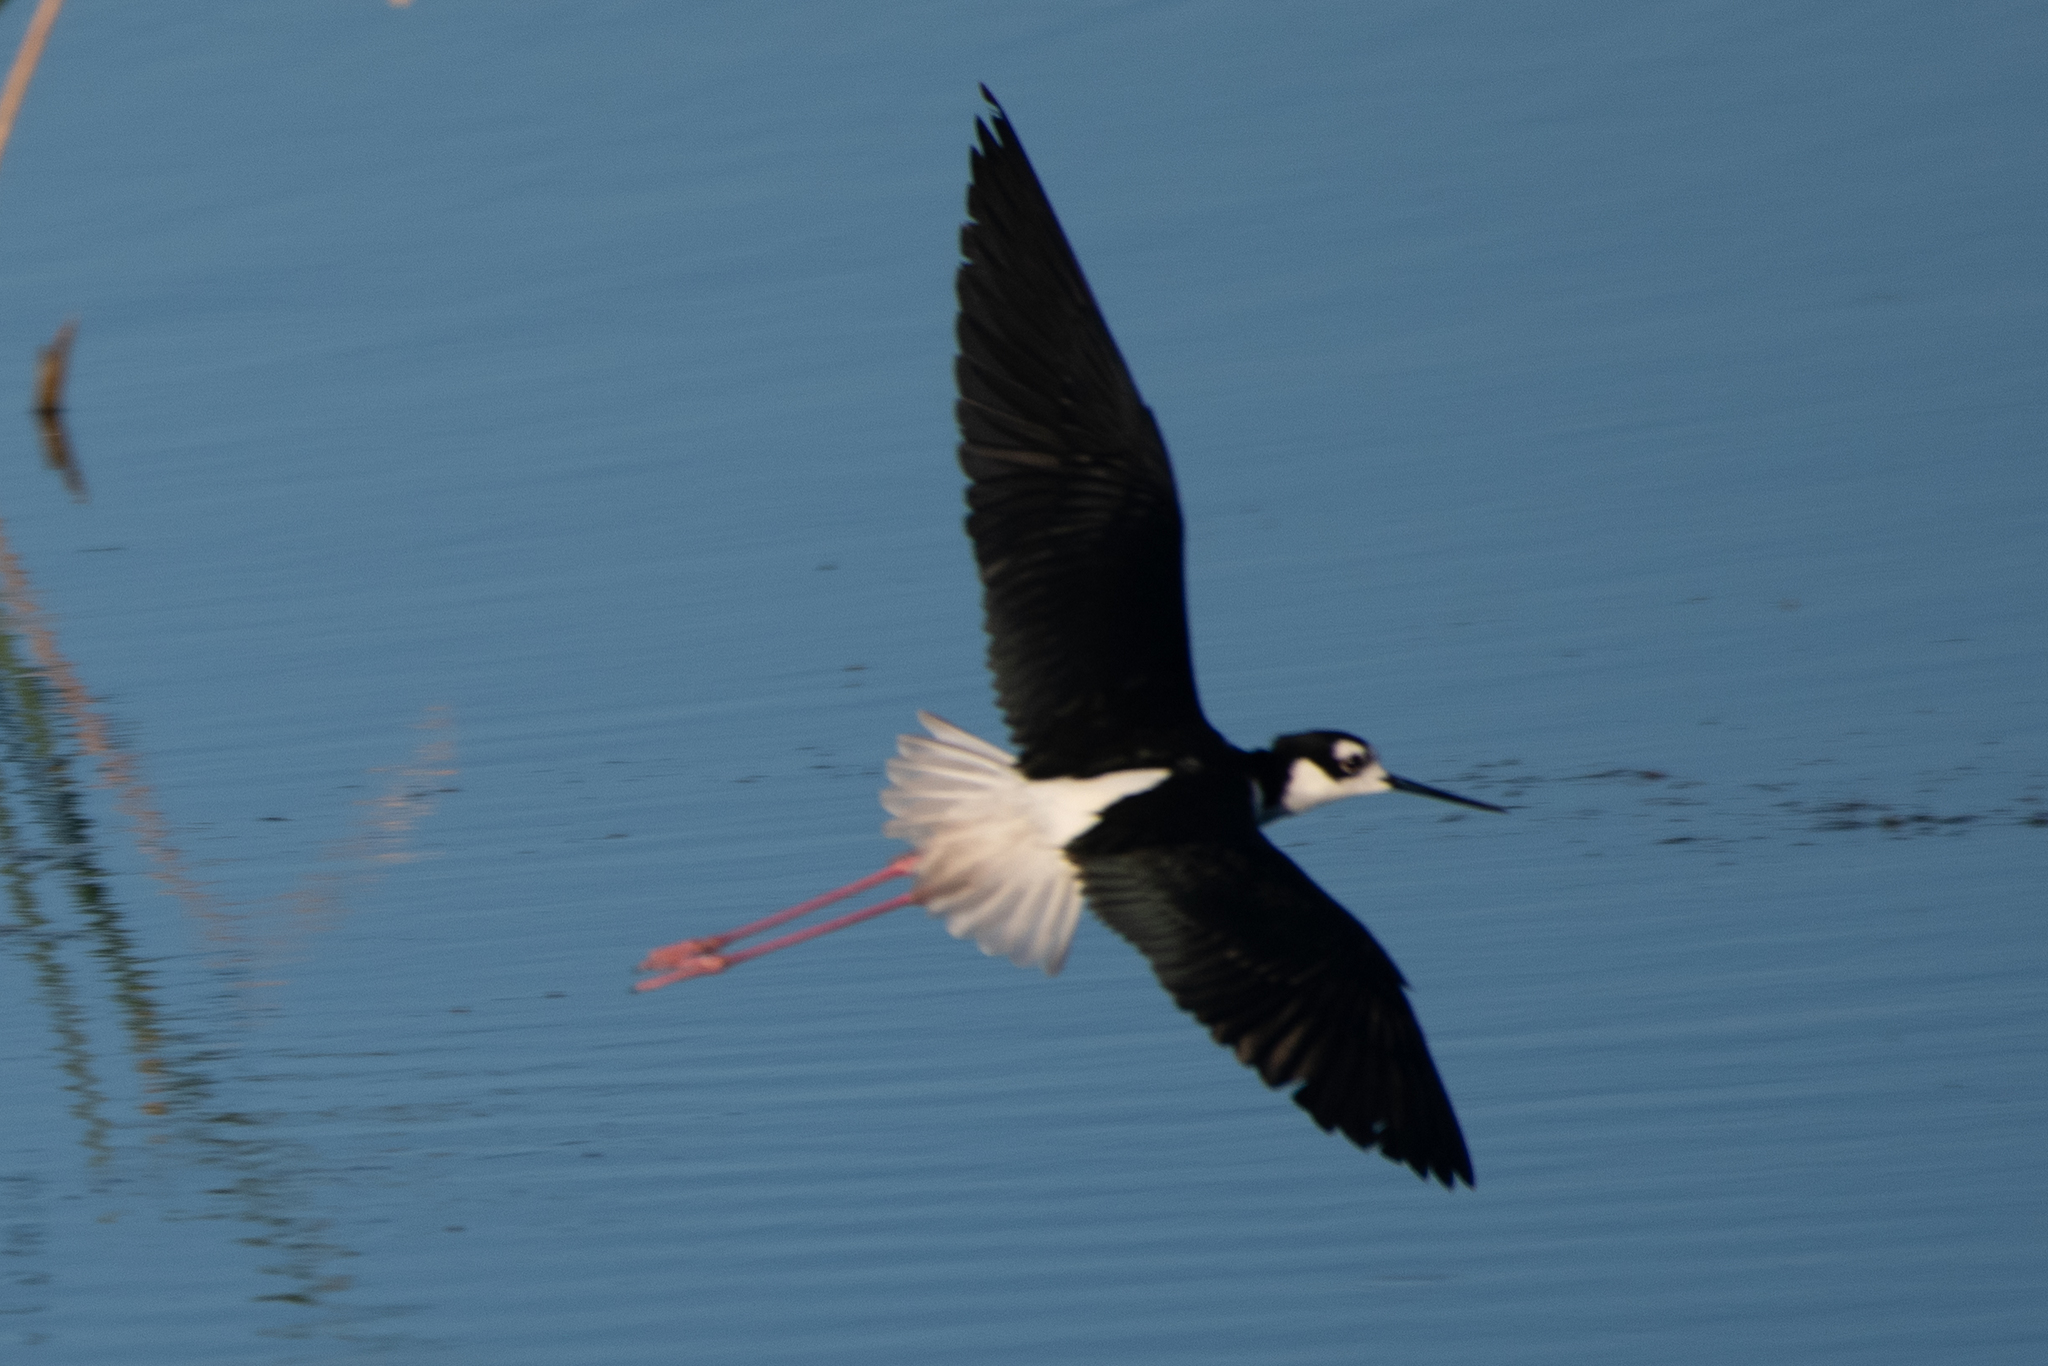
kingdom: Animalia
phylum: Chordata
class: Aves
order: Charadriiformes
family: Recurvirostridae
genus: Himantopus
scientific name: Himantopus mexicanus
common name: Black-necked stilt
